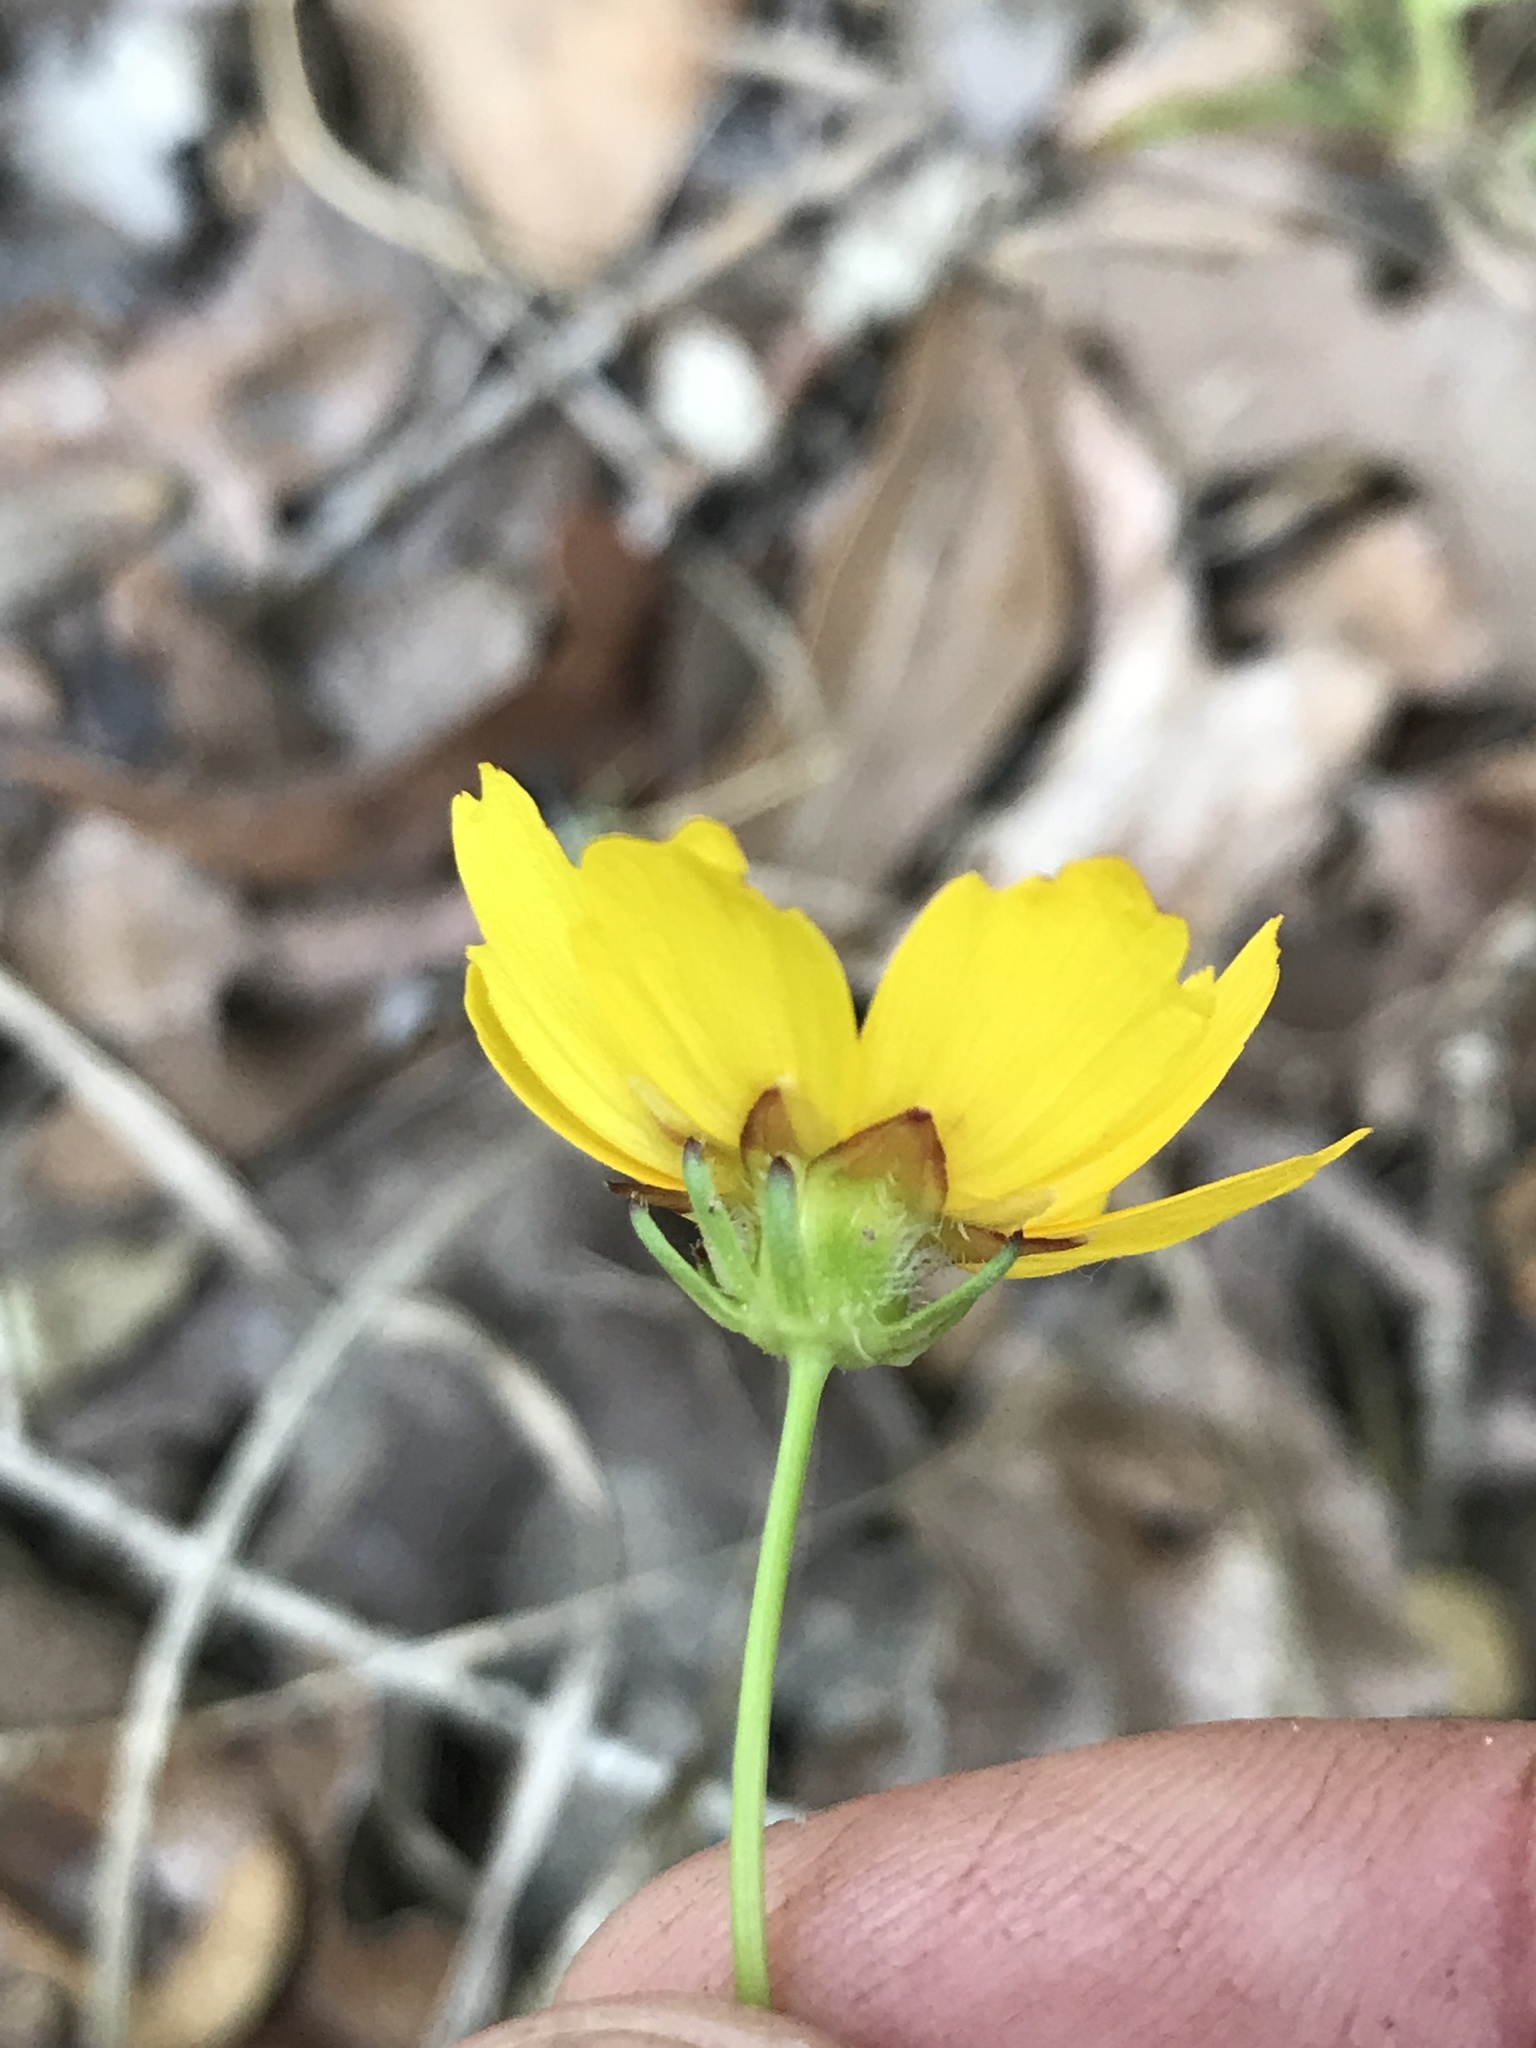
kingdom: Plantae
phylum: Tracheophyta
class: Magnoliopsida
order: Asterales
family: Asteraceae
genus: Coreopsis
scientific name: Coreopsis nuecensis
